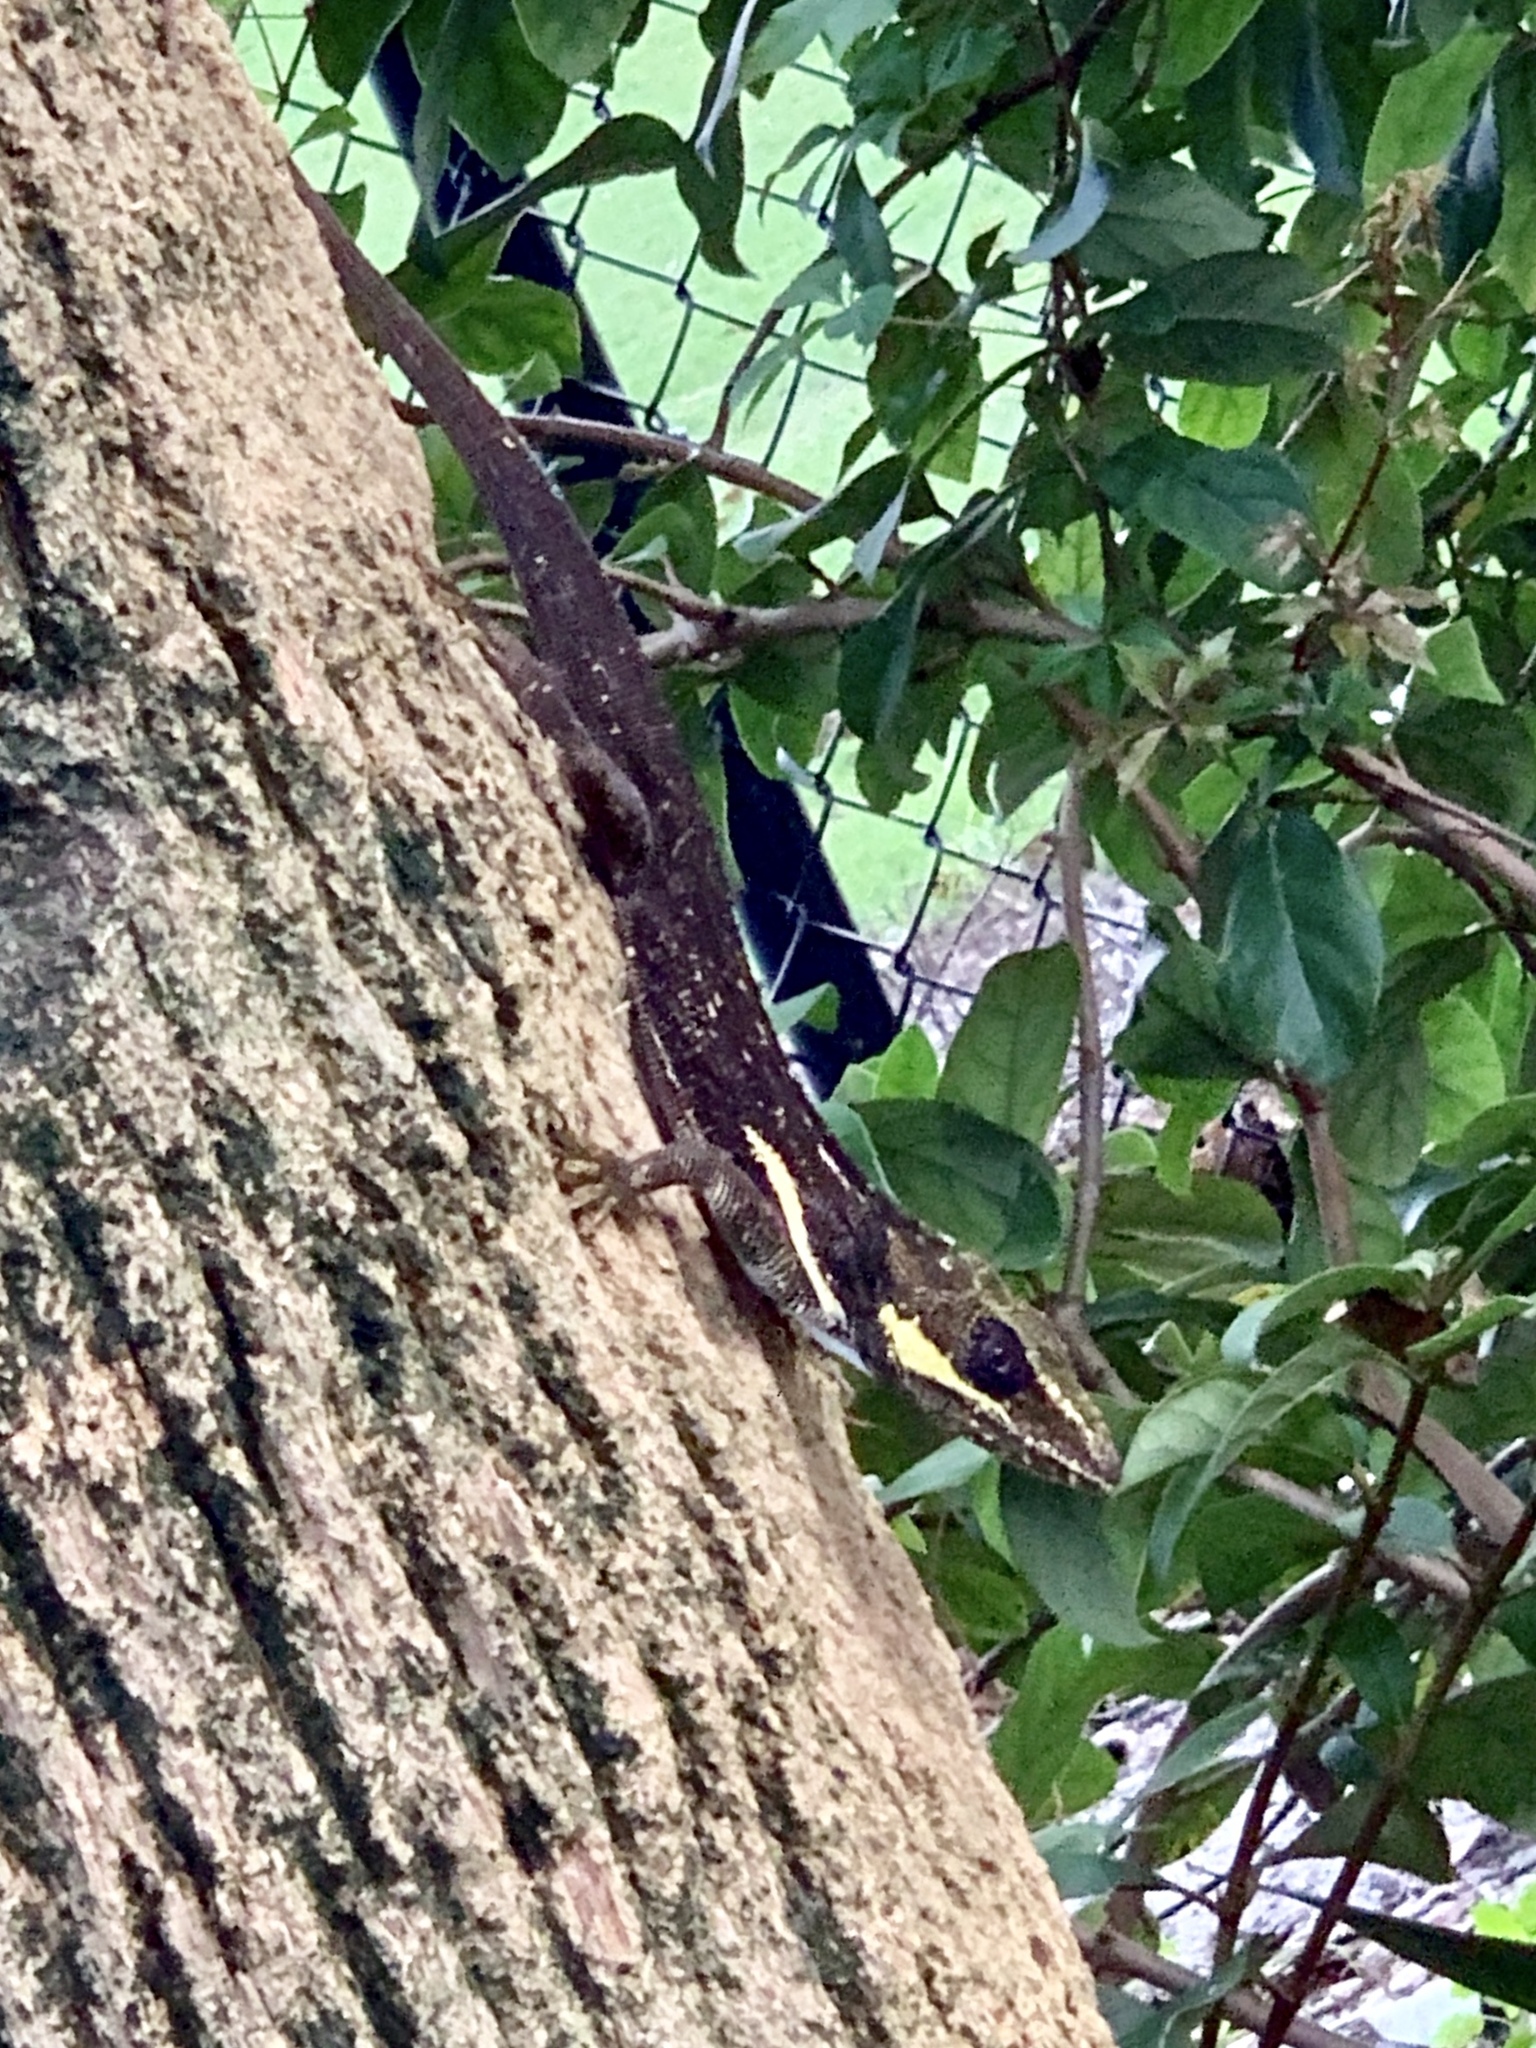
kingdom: Animalia
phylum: Chordata
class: Squamata
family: Dactyloidae
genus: Anolis
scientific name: Anolis equestris
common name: Knight anole
